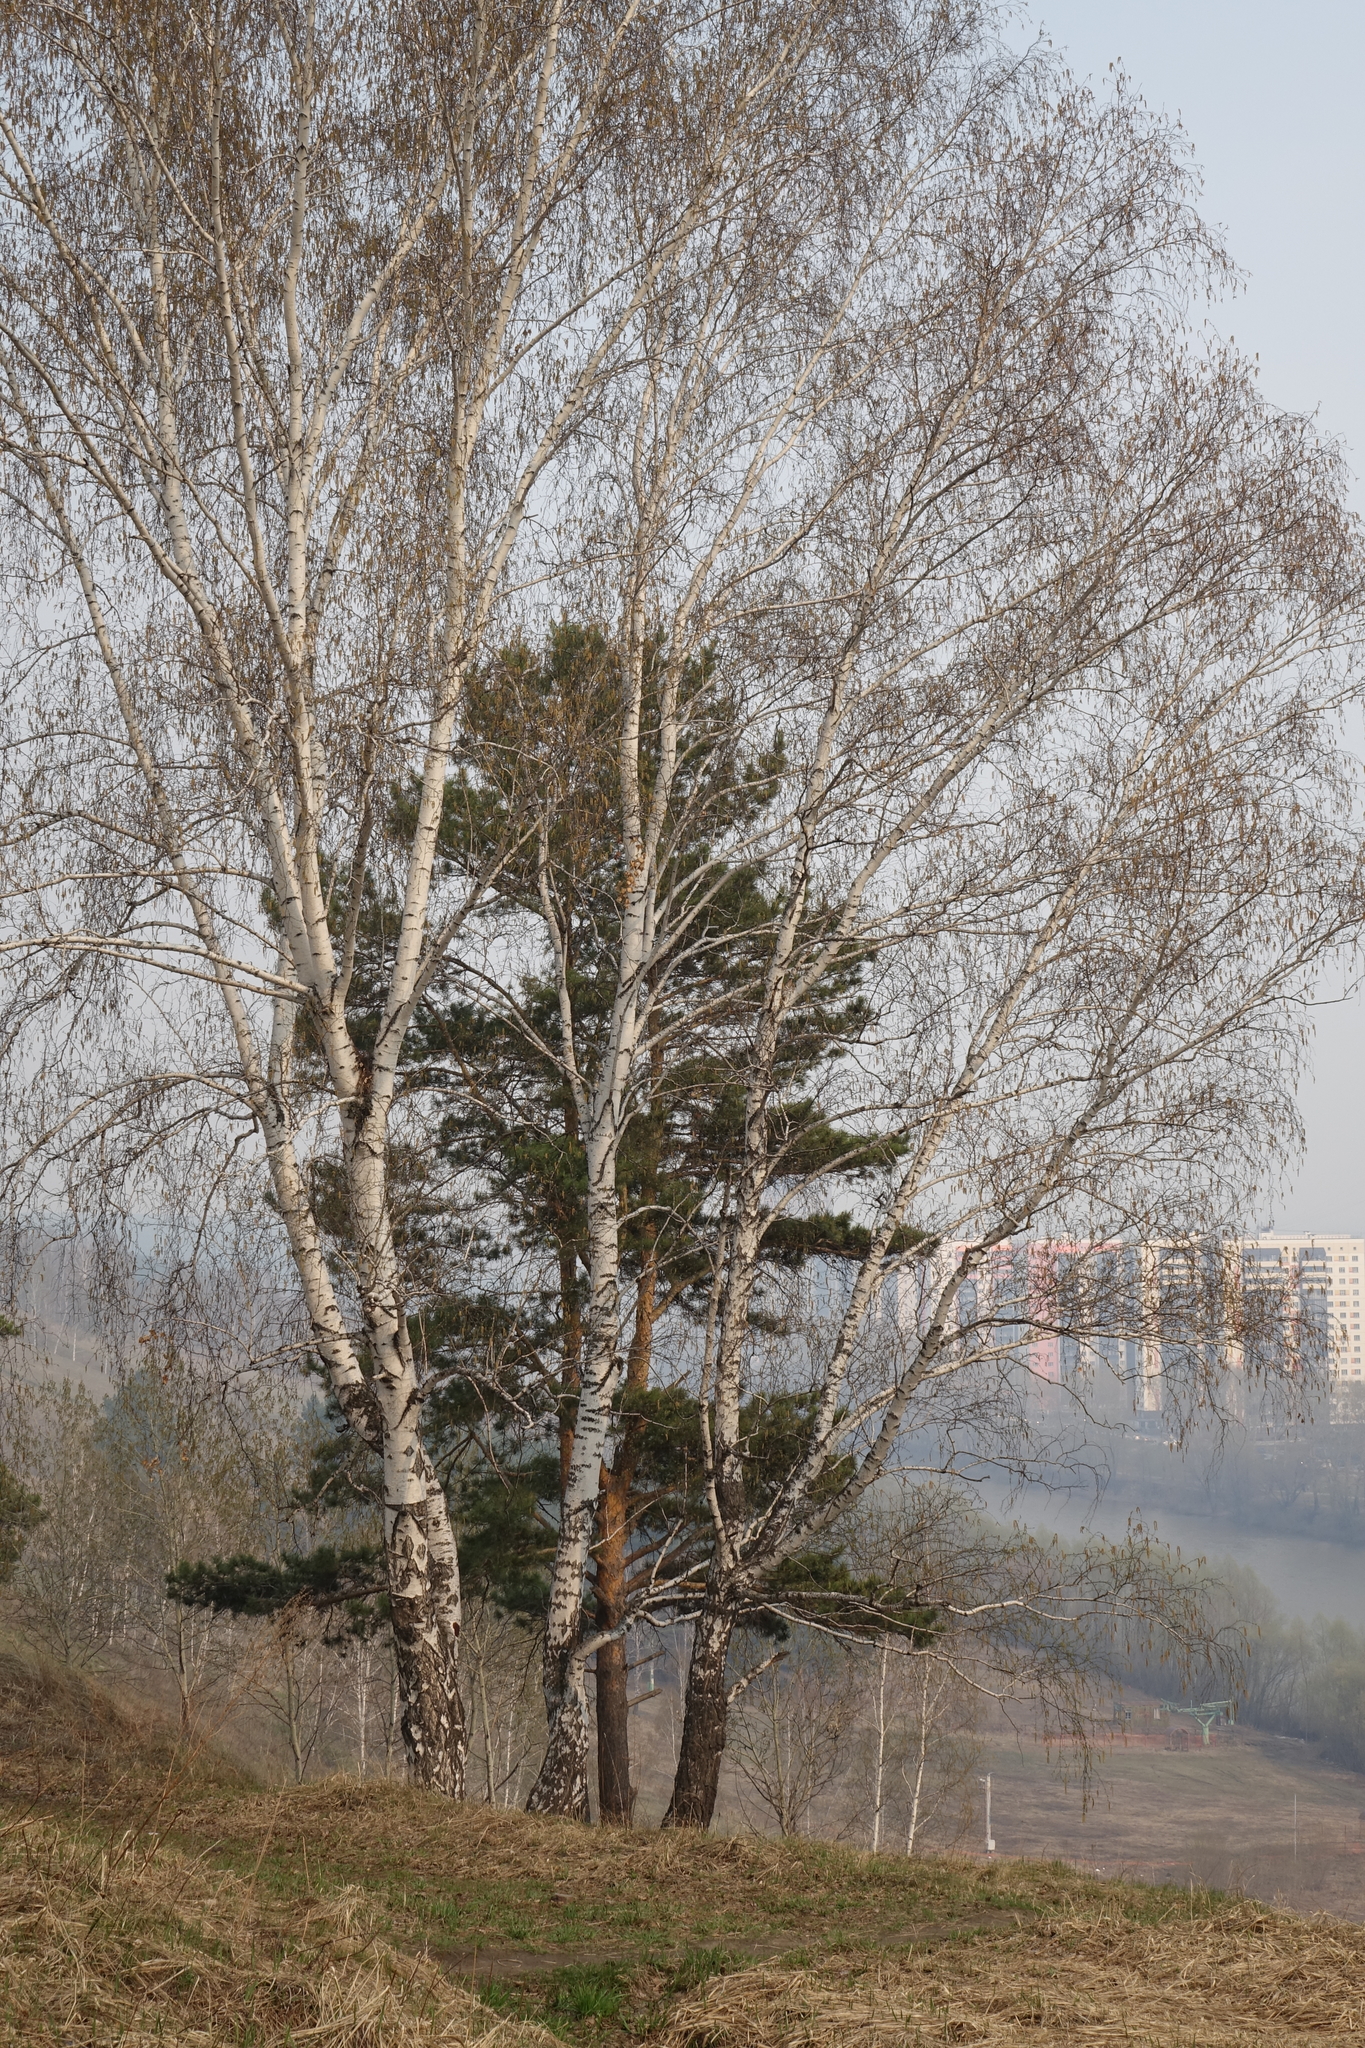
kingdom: Plantae
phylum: Tracheophyta
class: Magnoliopsida
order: Fagales
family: Betulaceae
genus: Betula
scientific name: Betula pendula
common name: Silver birch
